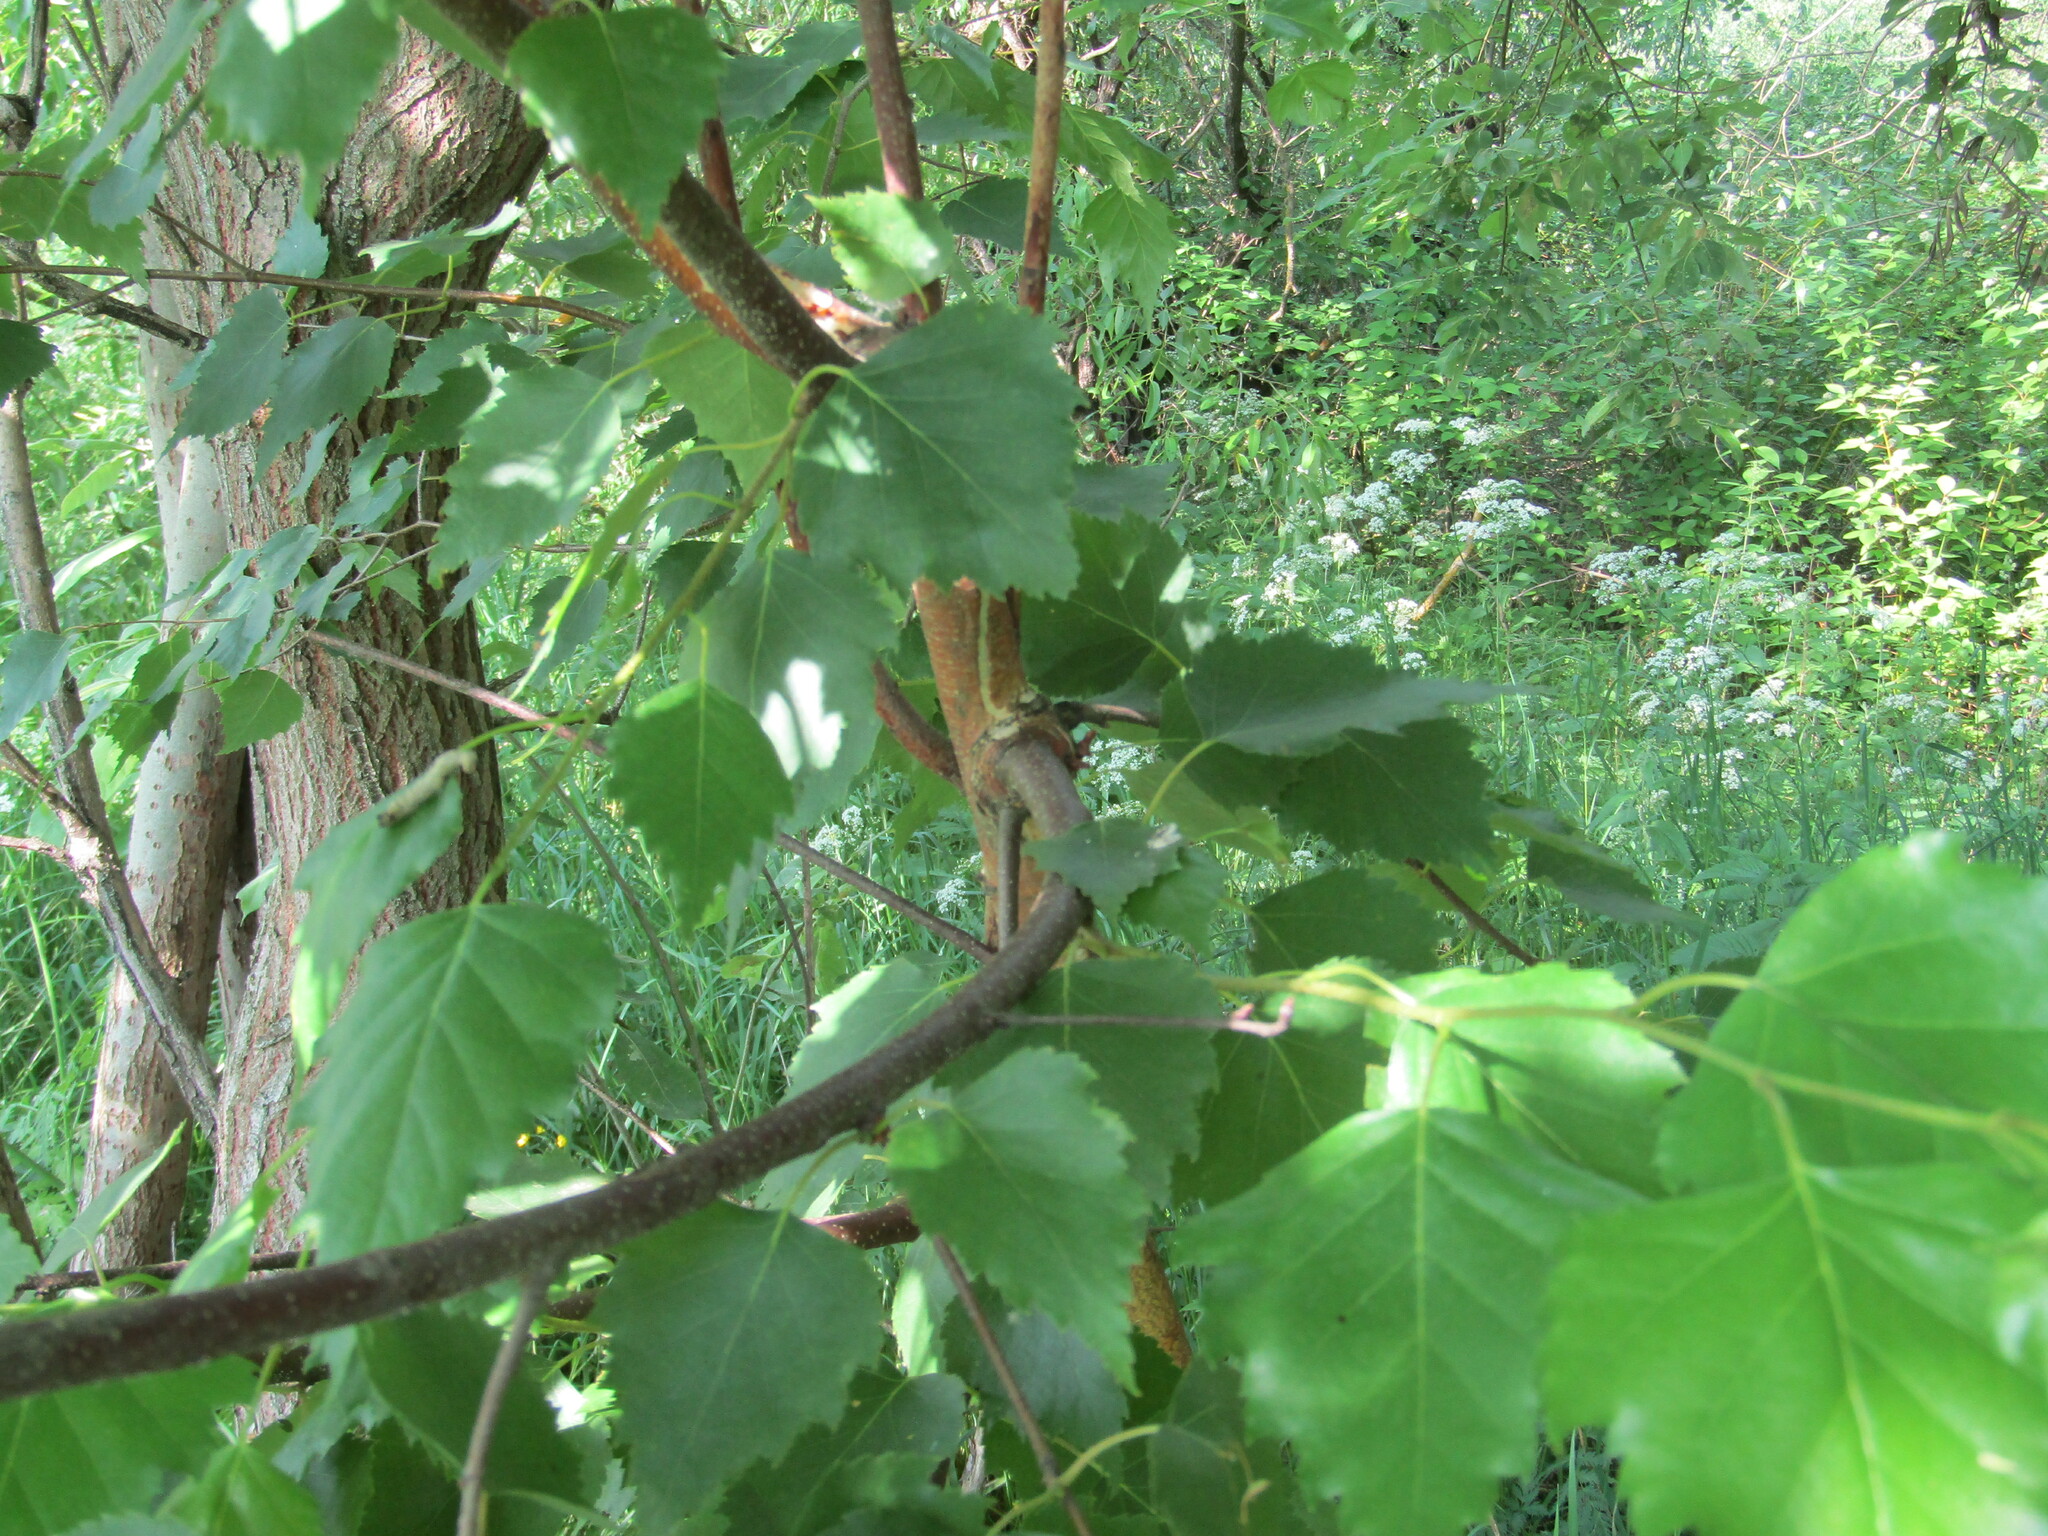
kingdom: Plantae
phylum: Tracheophyta
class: Magnoliopsida
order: Fagales
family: Betulaceae
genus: Betula
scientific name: Betula pendula
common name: Silver birch
